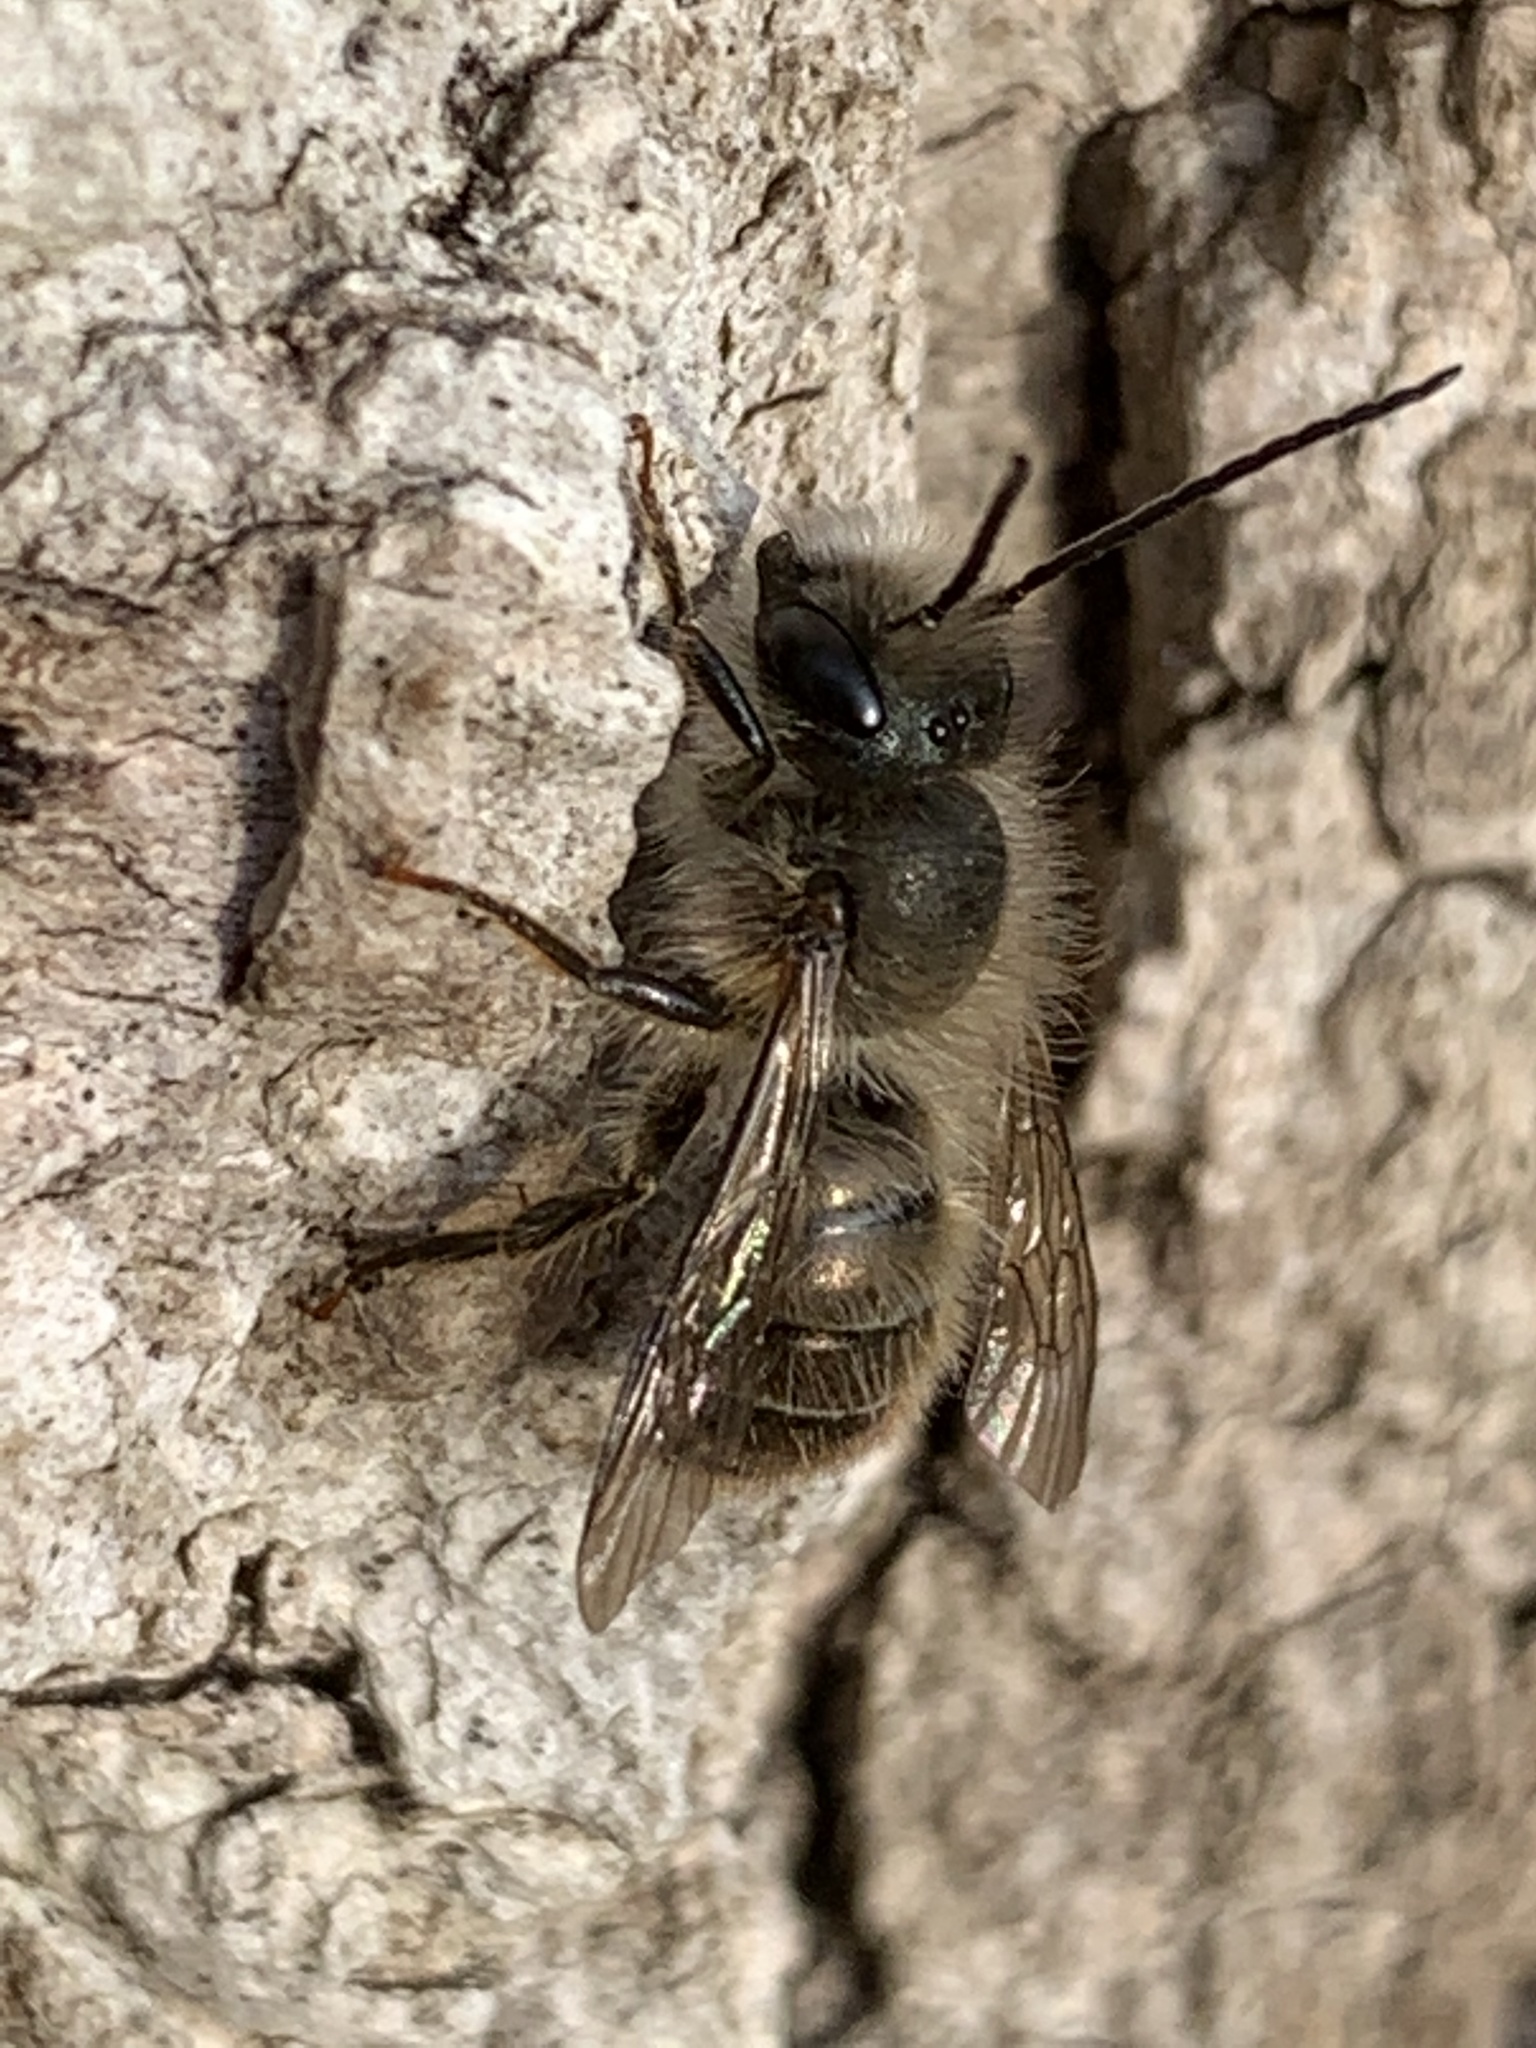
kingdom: Animalia
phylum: Arthropoda
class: Insecta
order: Hymenoptera
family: Megachilidae
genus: Osmia
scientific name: Osmia cornifrons
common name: Horn-faced bee
